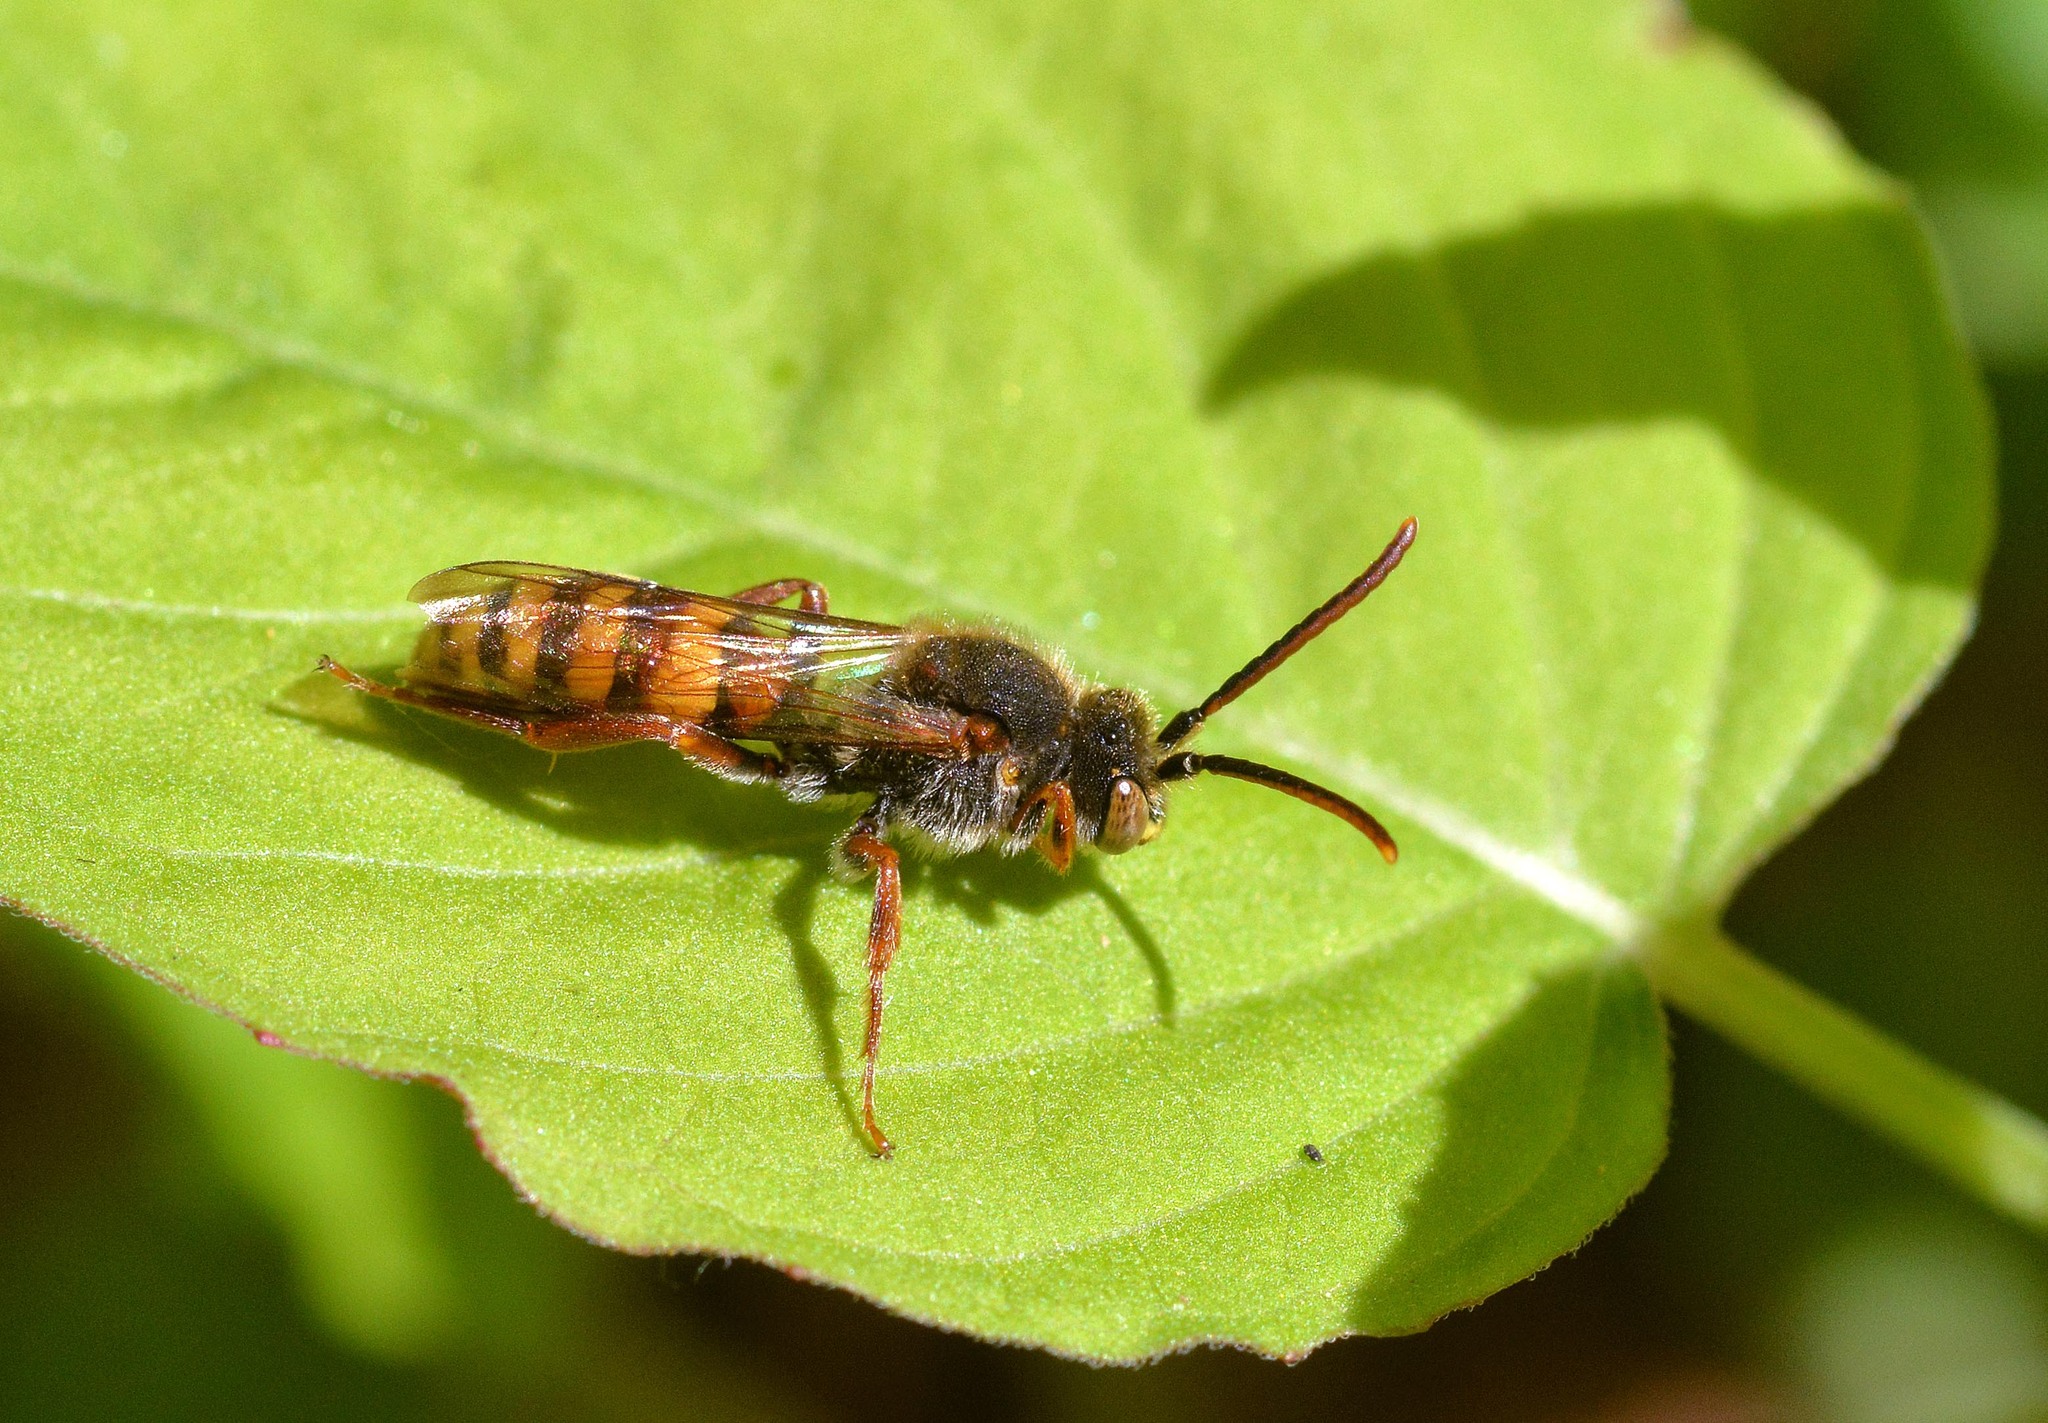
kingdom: Animalia
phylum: Arthropoda
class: Insecta
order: Hymenoptera
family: Apidae
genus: Nomada
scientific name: Nomada
